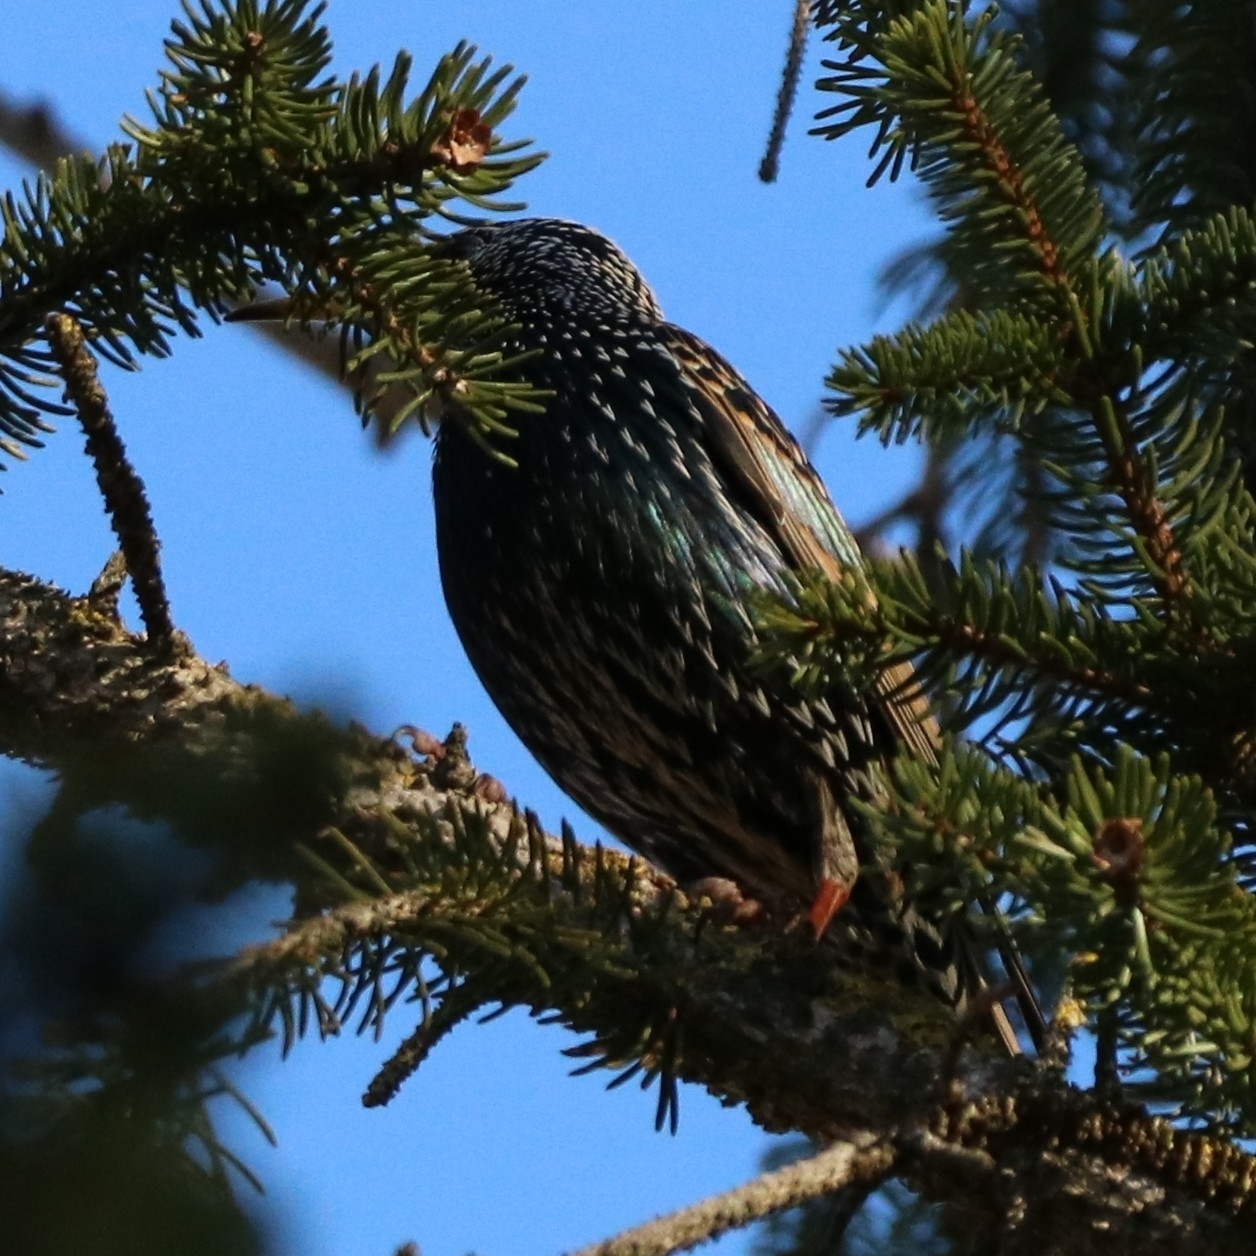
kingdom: Animalia
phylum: Chordata
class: Aves
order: Passeriformes
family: Sturnidae
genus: Sturnus
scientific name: Sturnus vulgaris
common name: Common starling
